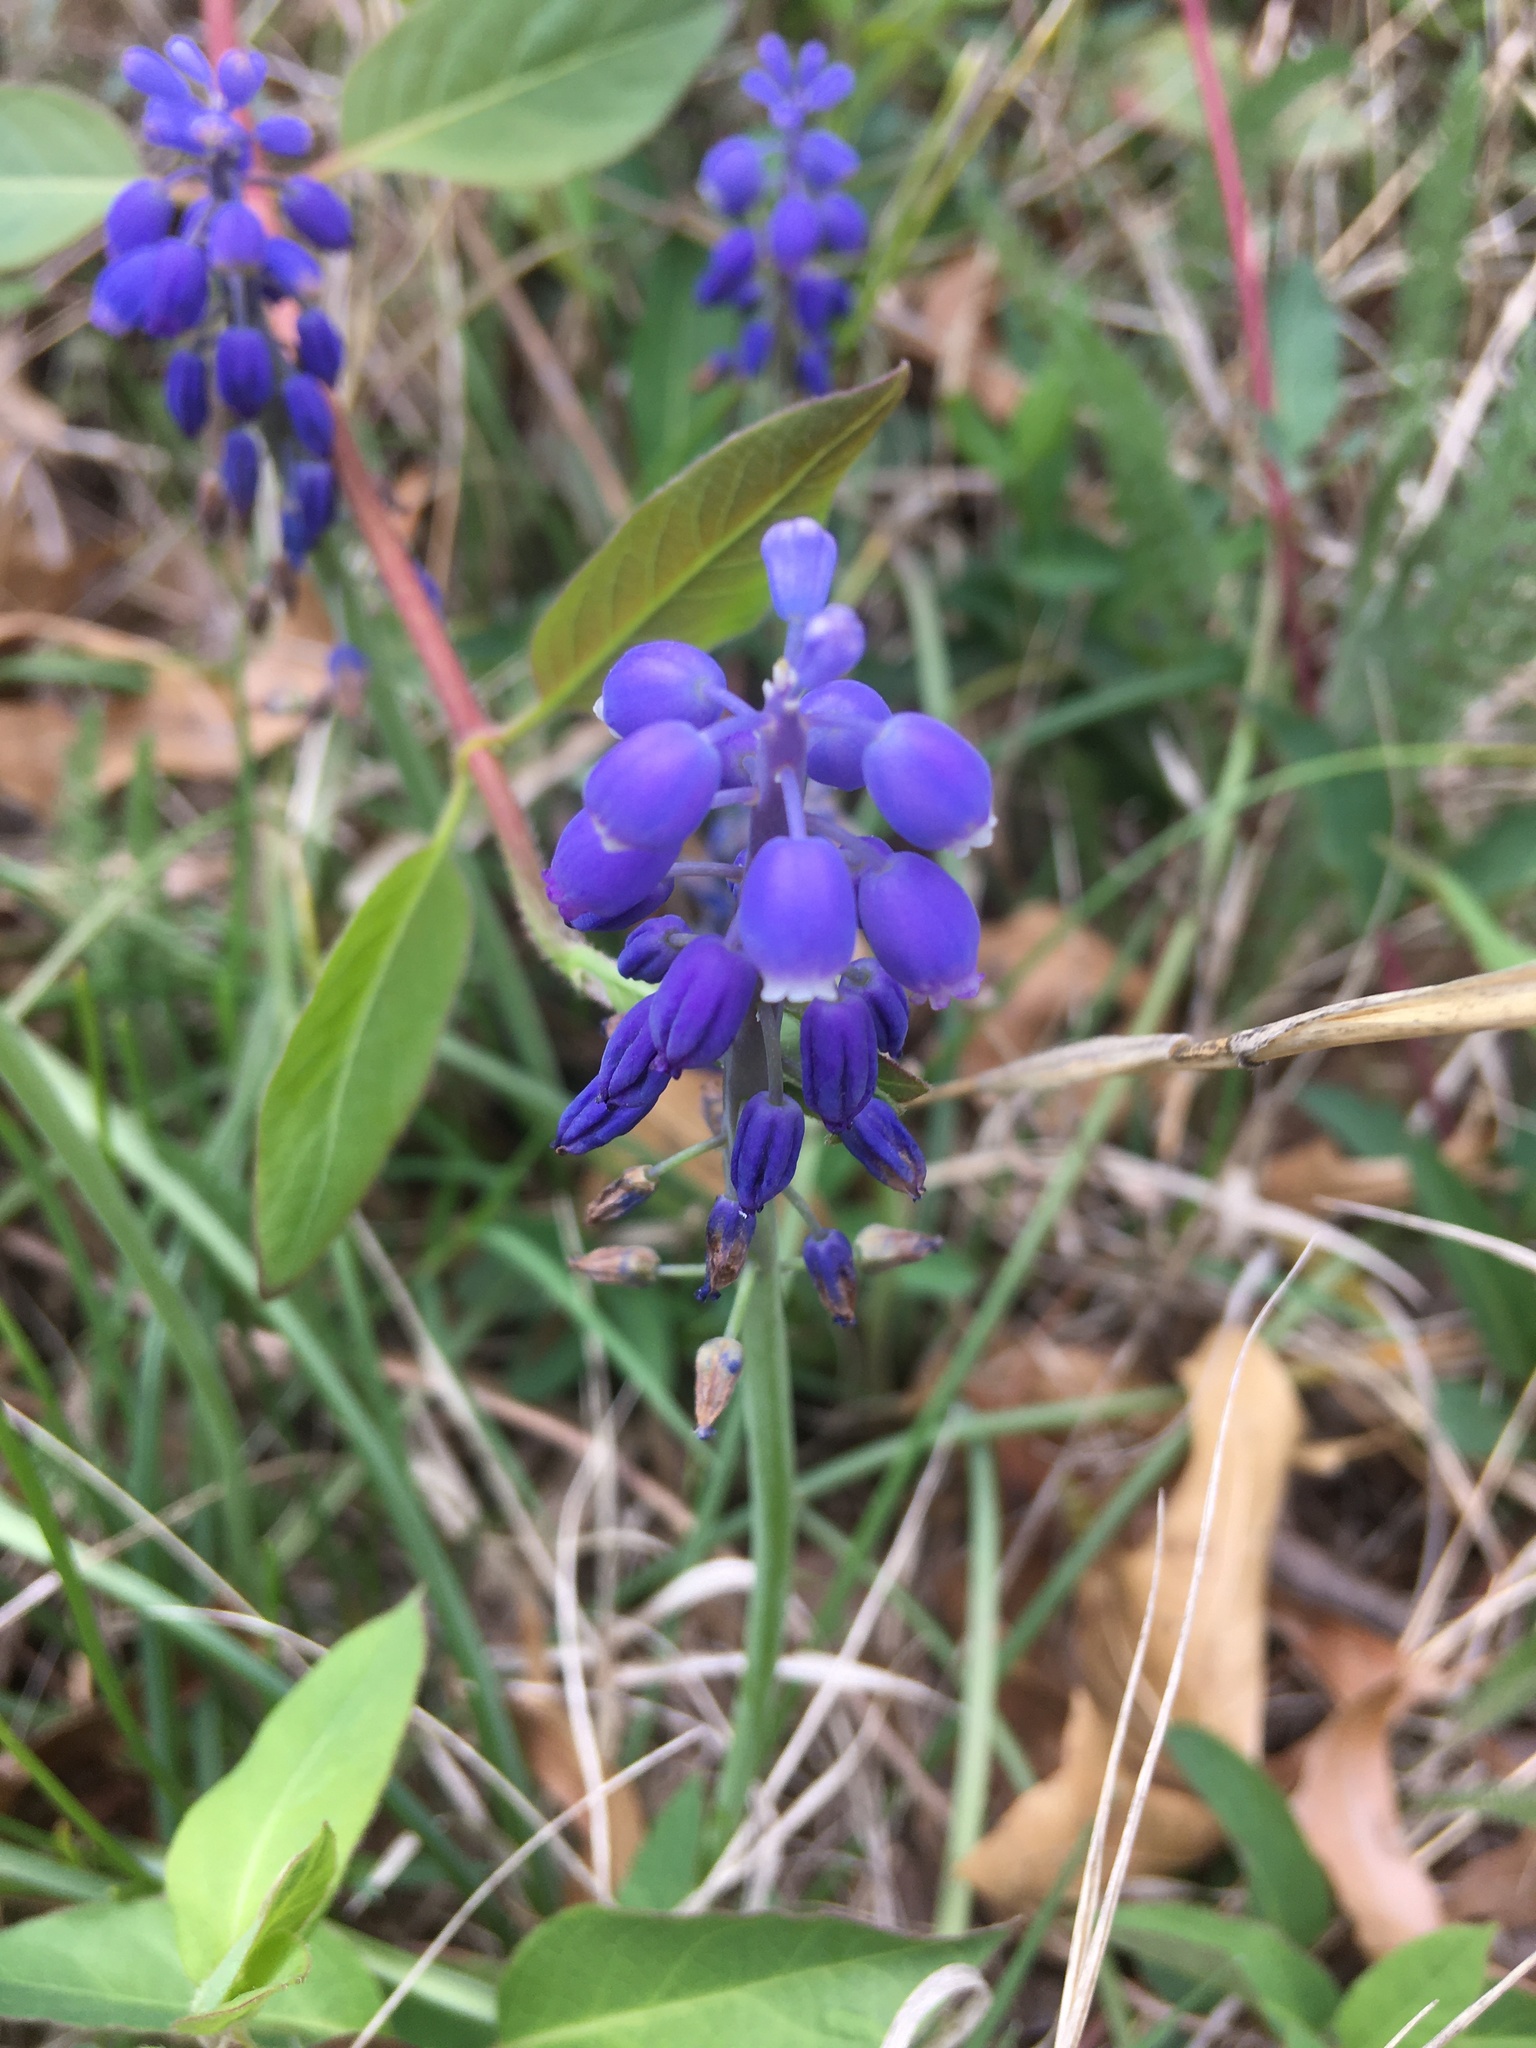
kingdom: Plantae
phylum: Tracheophyta
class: Liliopsida
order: Asparagales
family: Asparagaceae
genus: Muscari
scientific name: Muscari botryoides
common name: Compact grape-hyacinth
